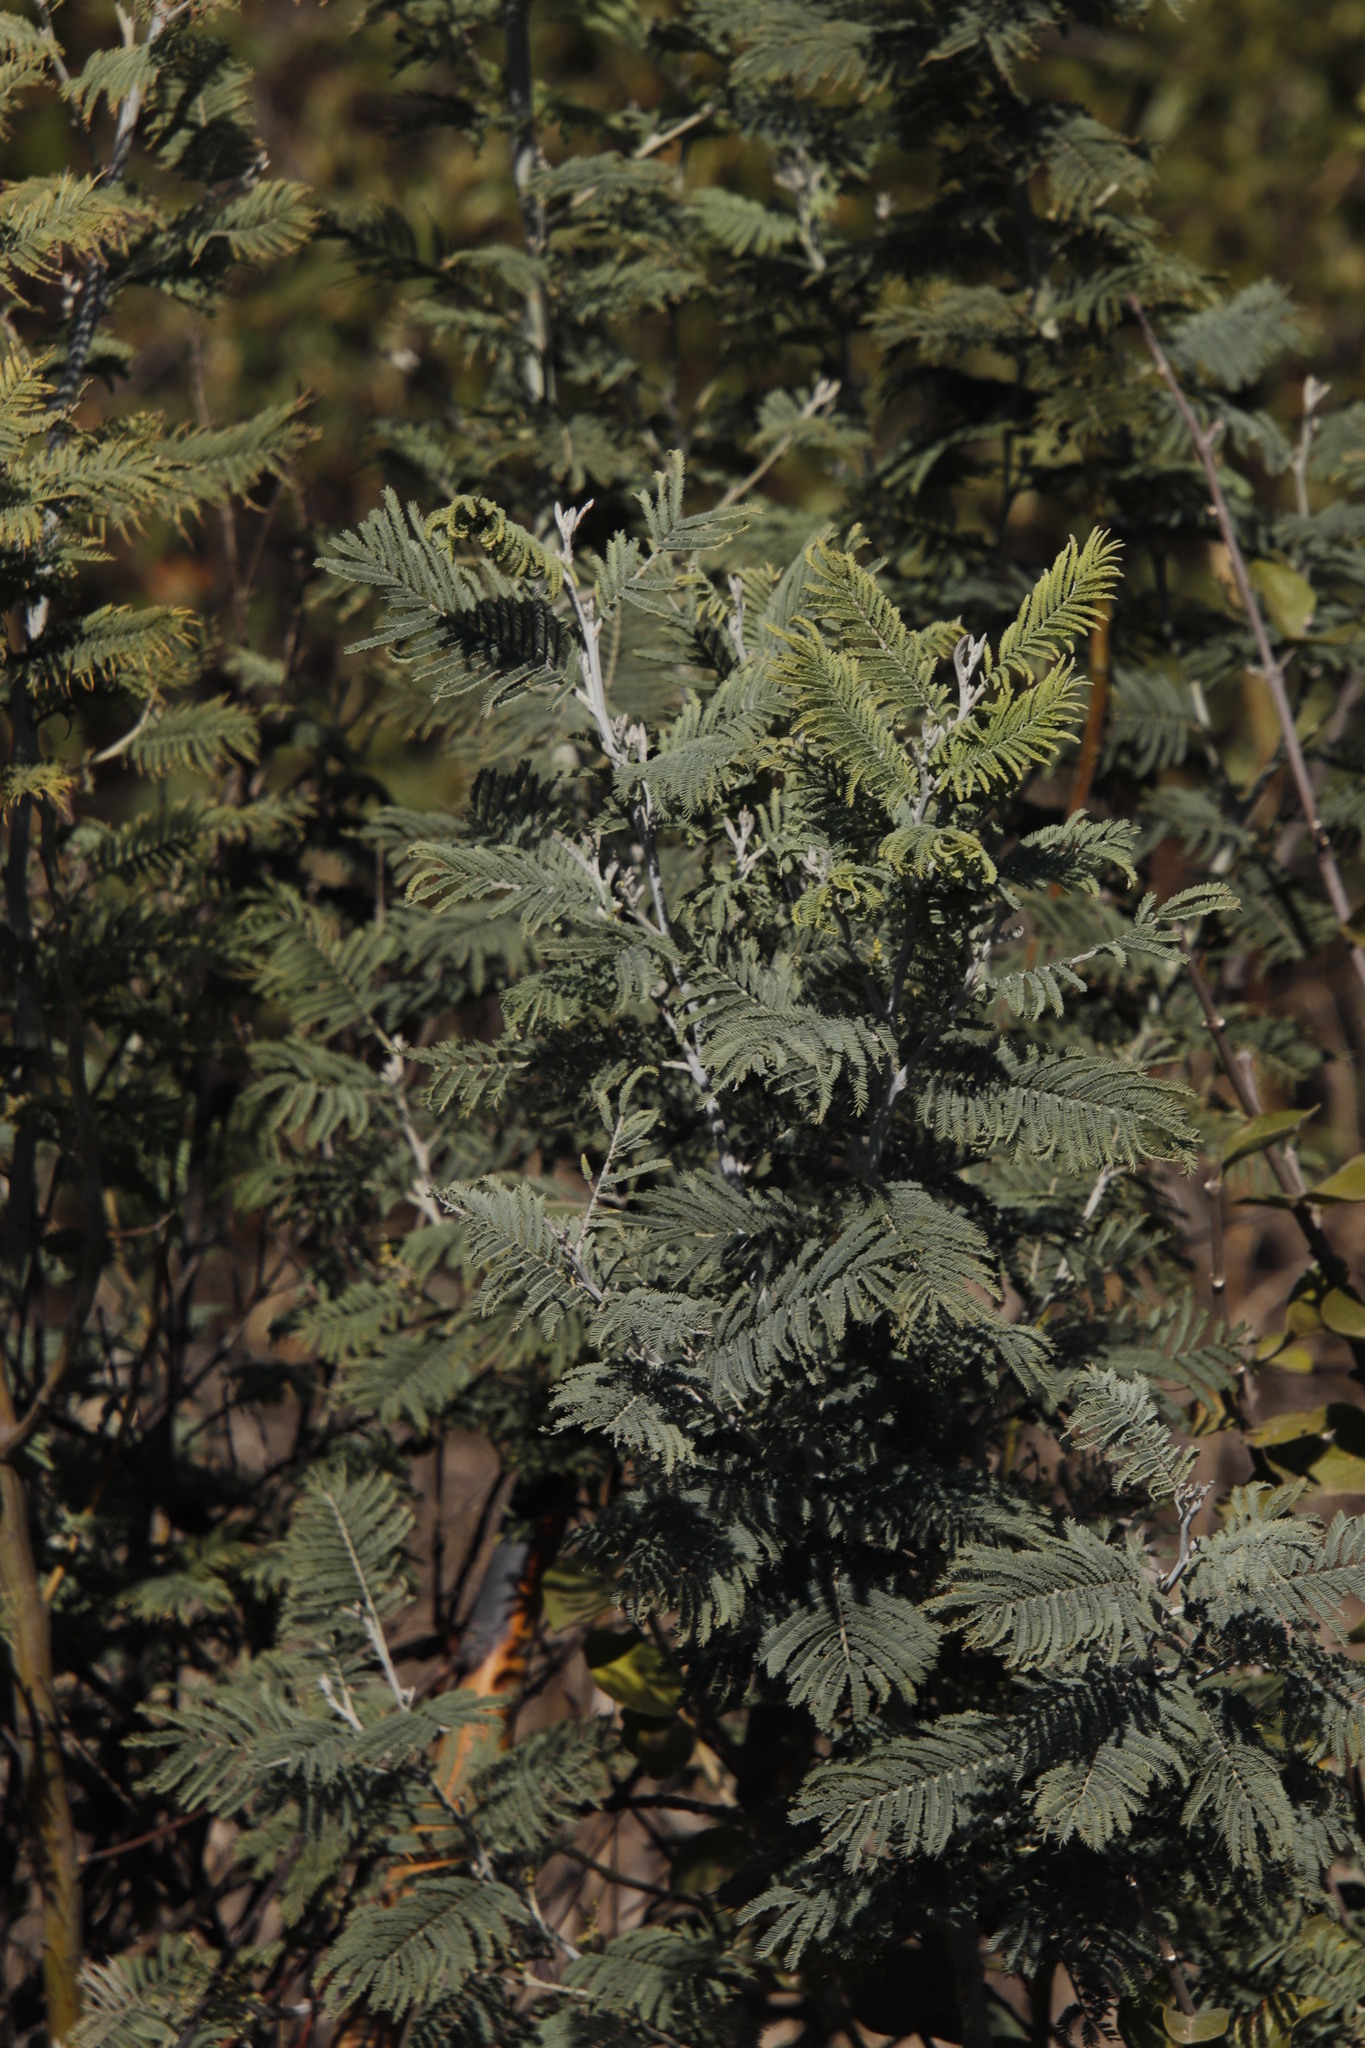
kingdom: Plantae
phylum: Tracheophyta
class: Magnoliopsida
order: Fabales
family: Fabaceae
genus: Acacia
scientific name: Acacia dealbata
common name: Silver wattle
